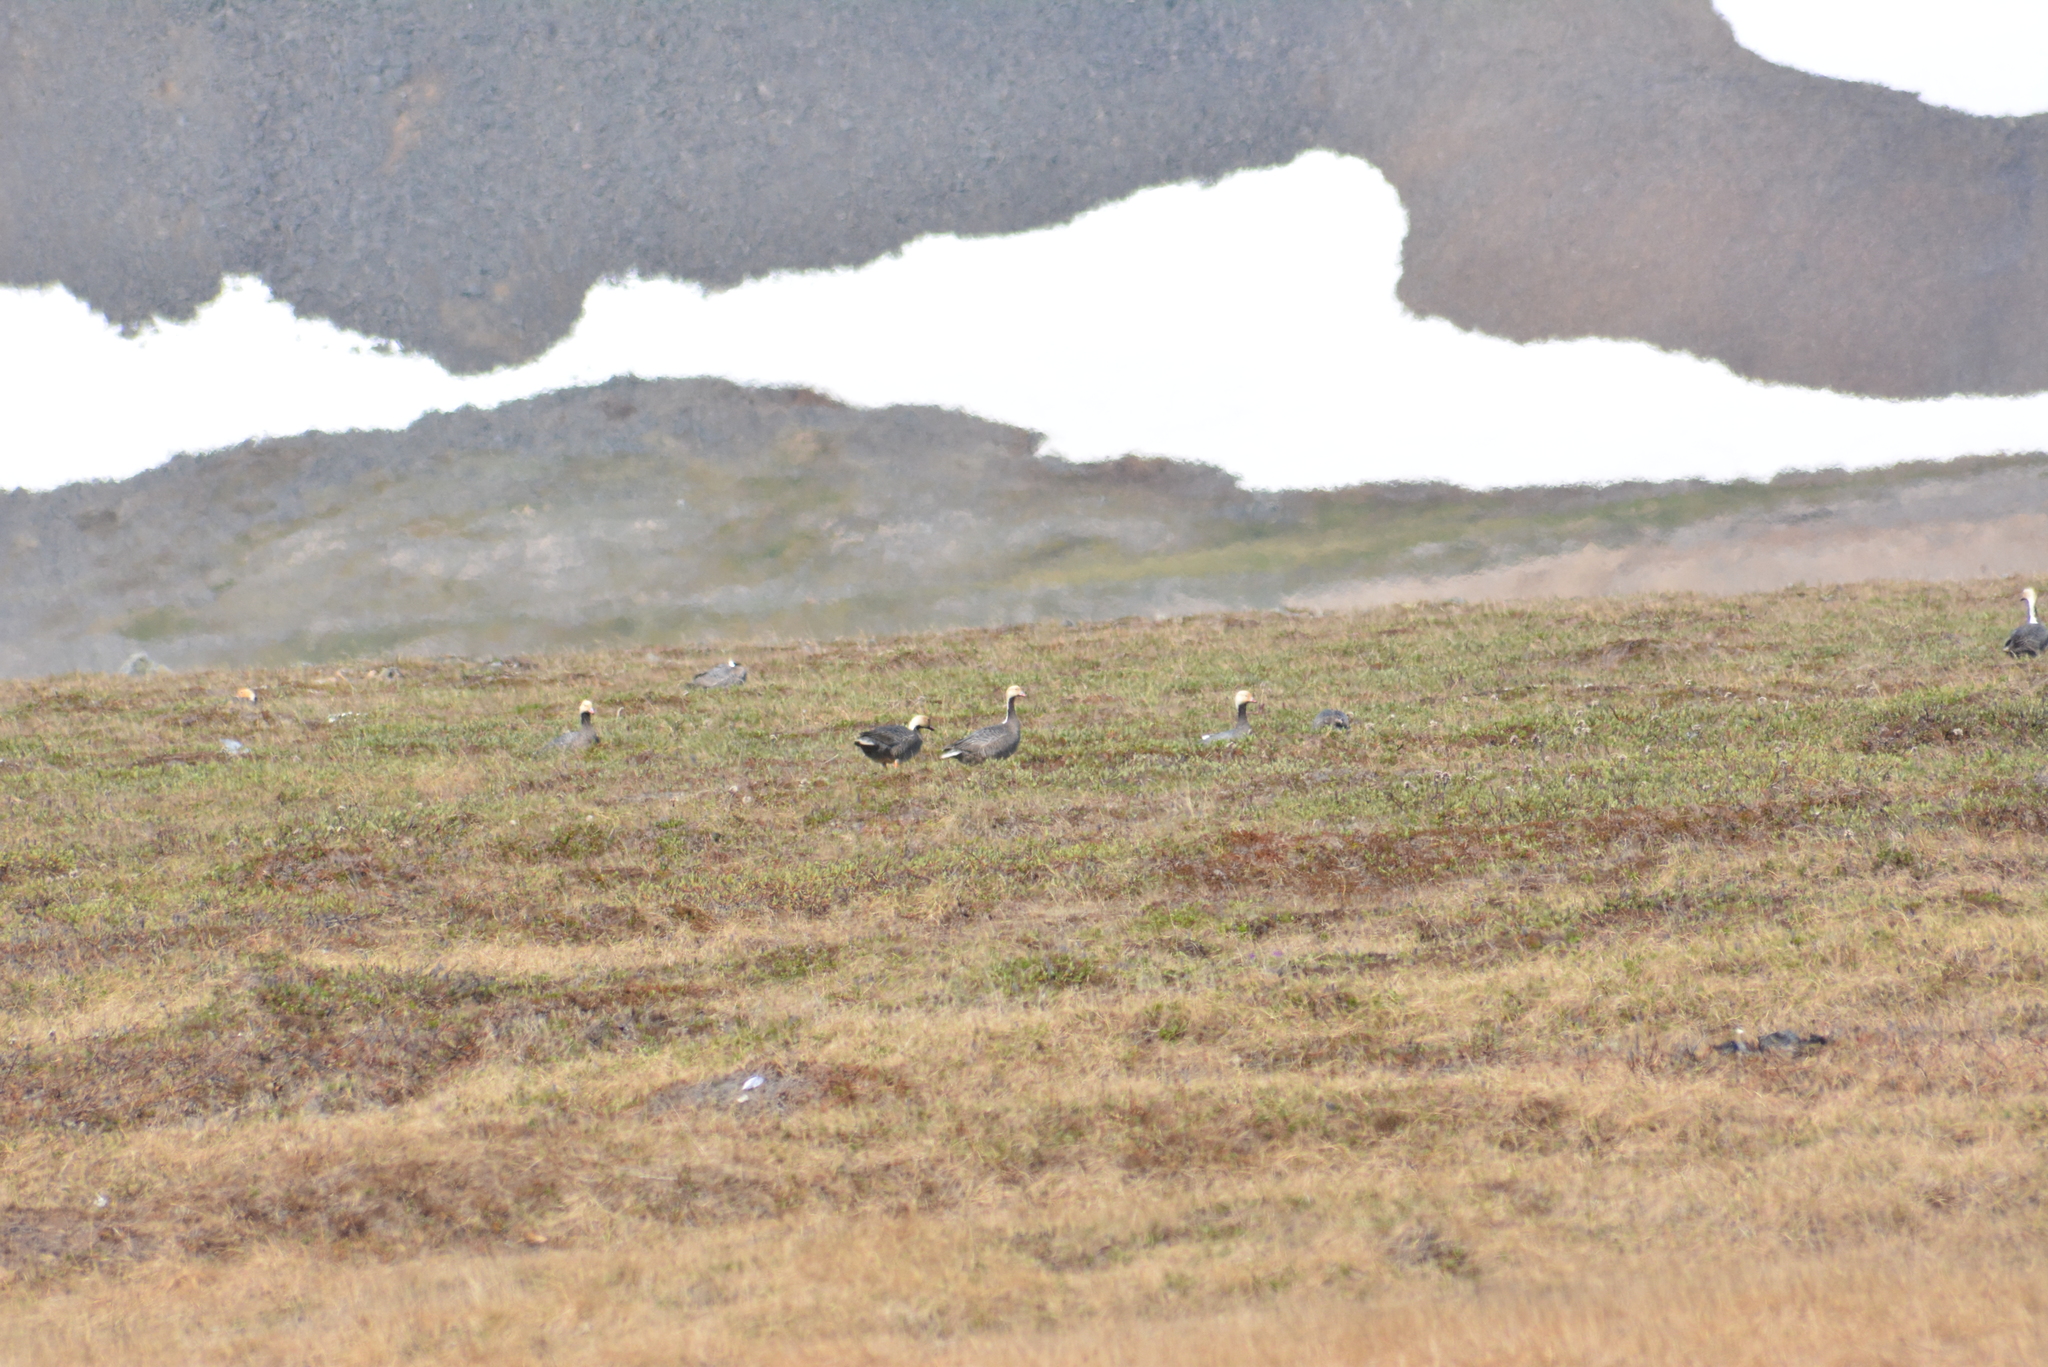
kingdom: Animalia
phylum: Chordata
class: Aves
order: Anseriformes
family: Anatidae
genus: Anser
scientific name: Anser canagicus
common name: Emperor goose
